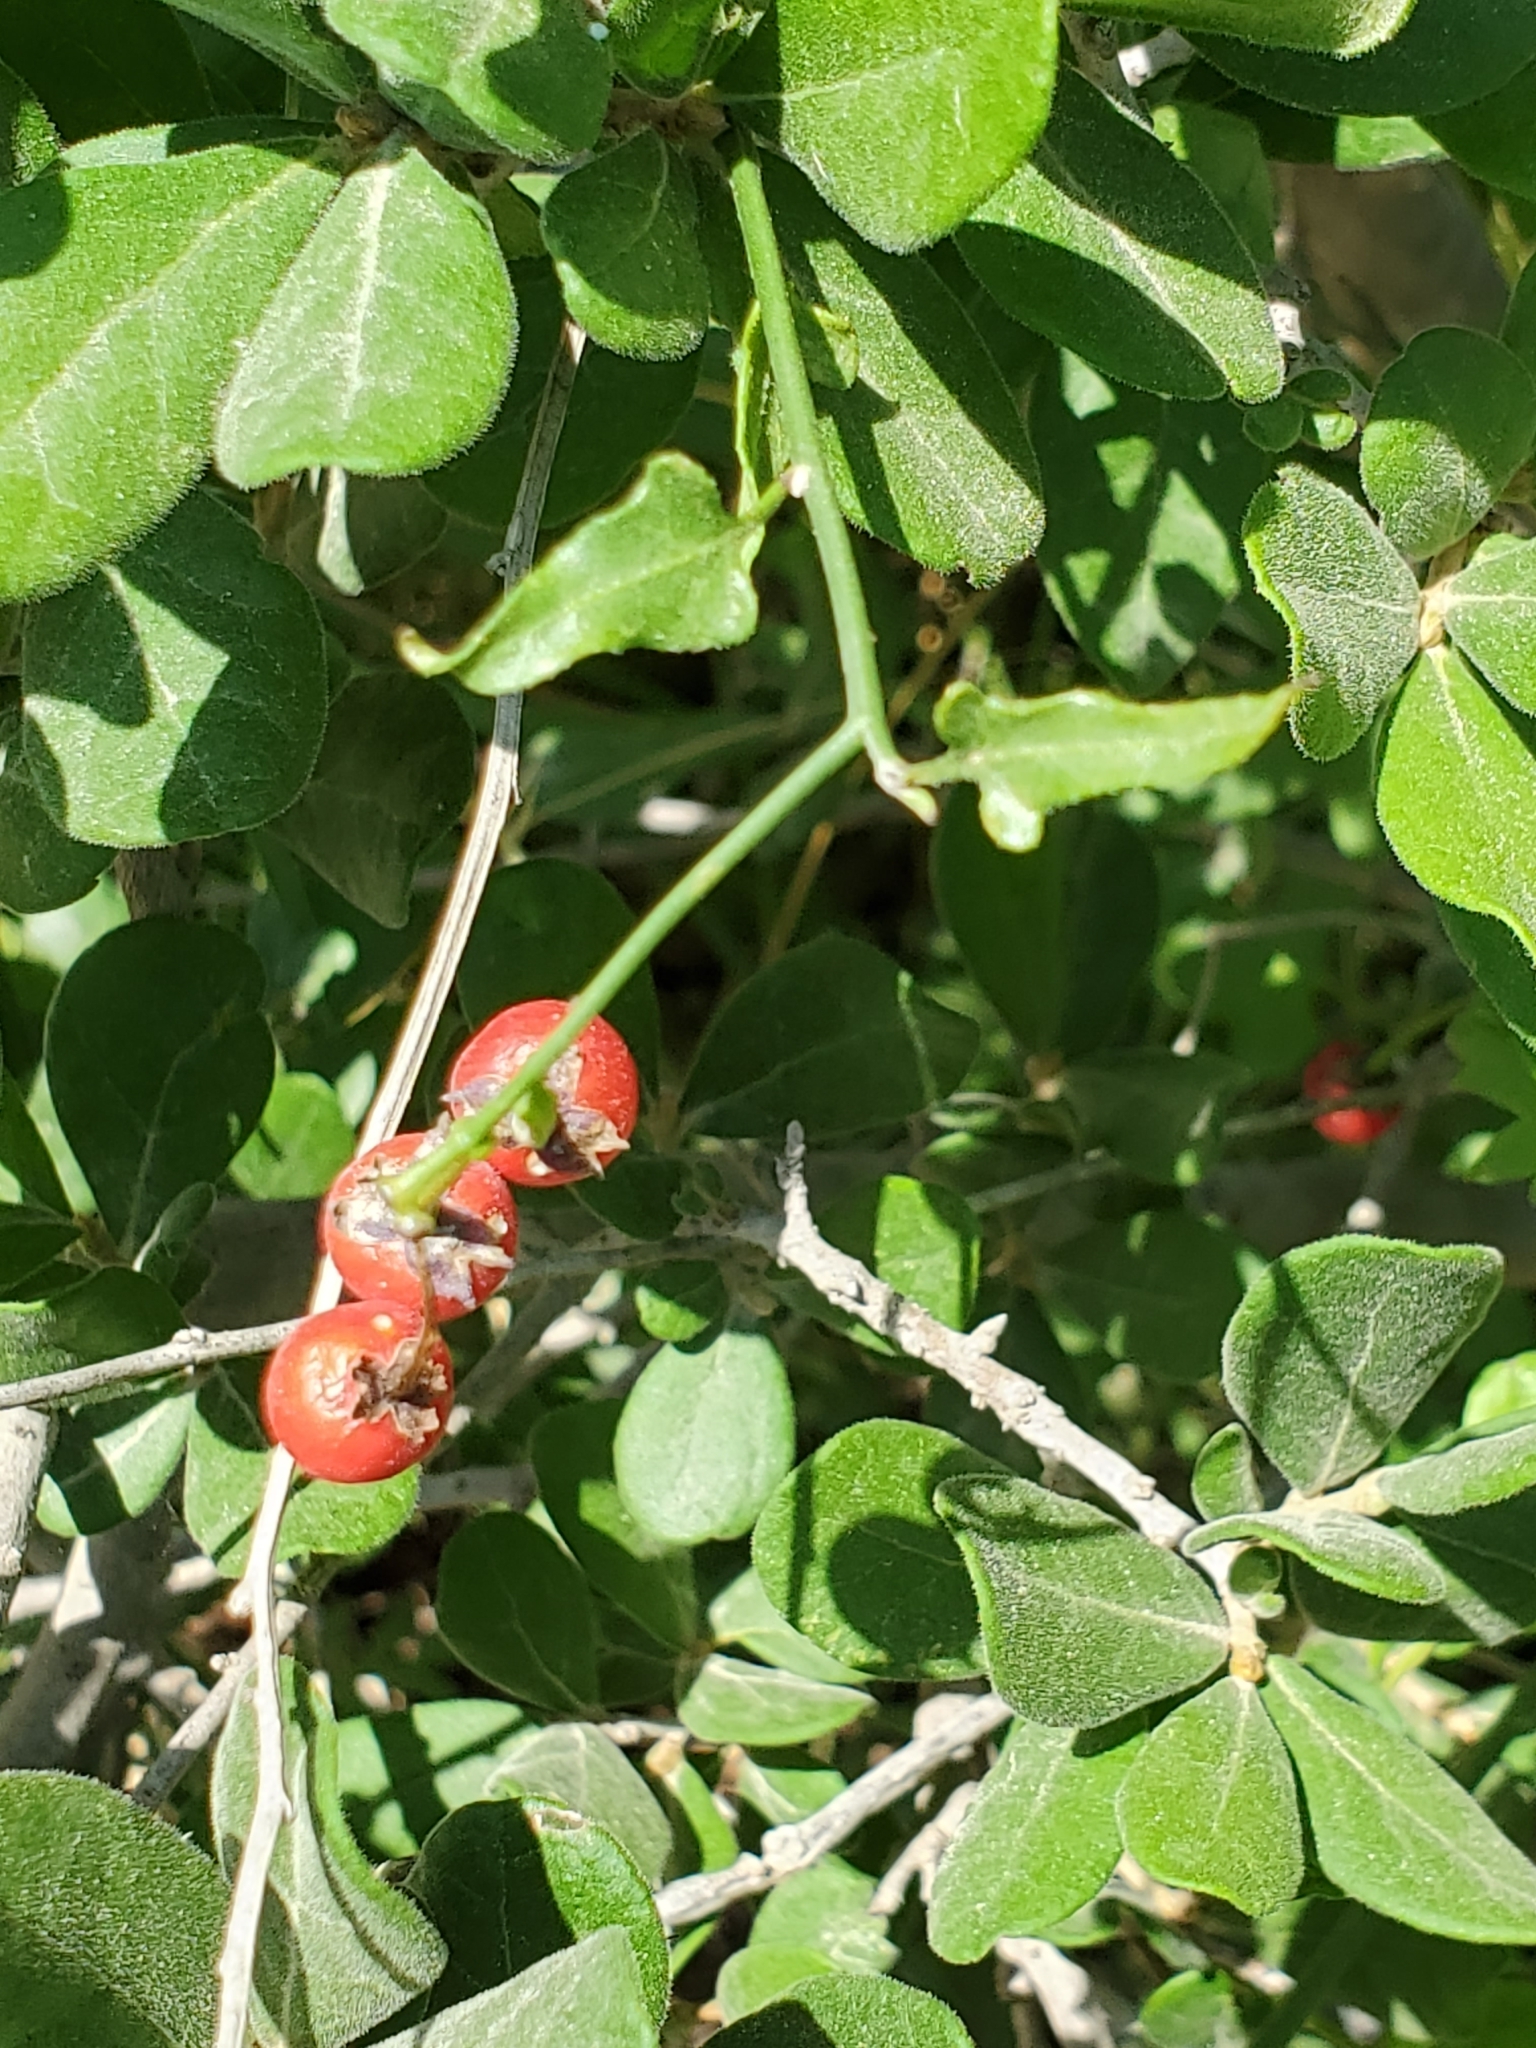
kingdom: Plantae
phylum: Tracheophyta
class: Magnoliopsida
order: Solanales
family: Solanaceae
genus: Solanum
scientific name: Solanum triquetrum
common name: Texas nightshade
